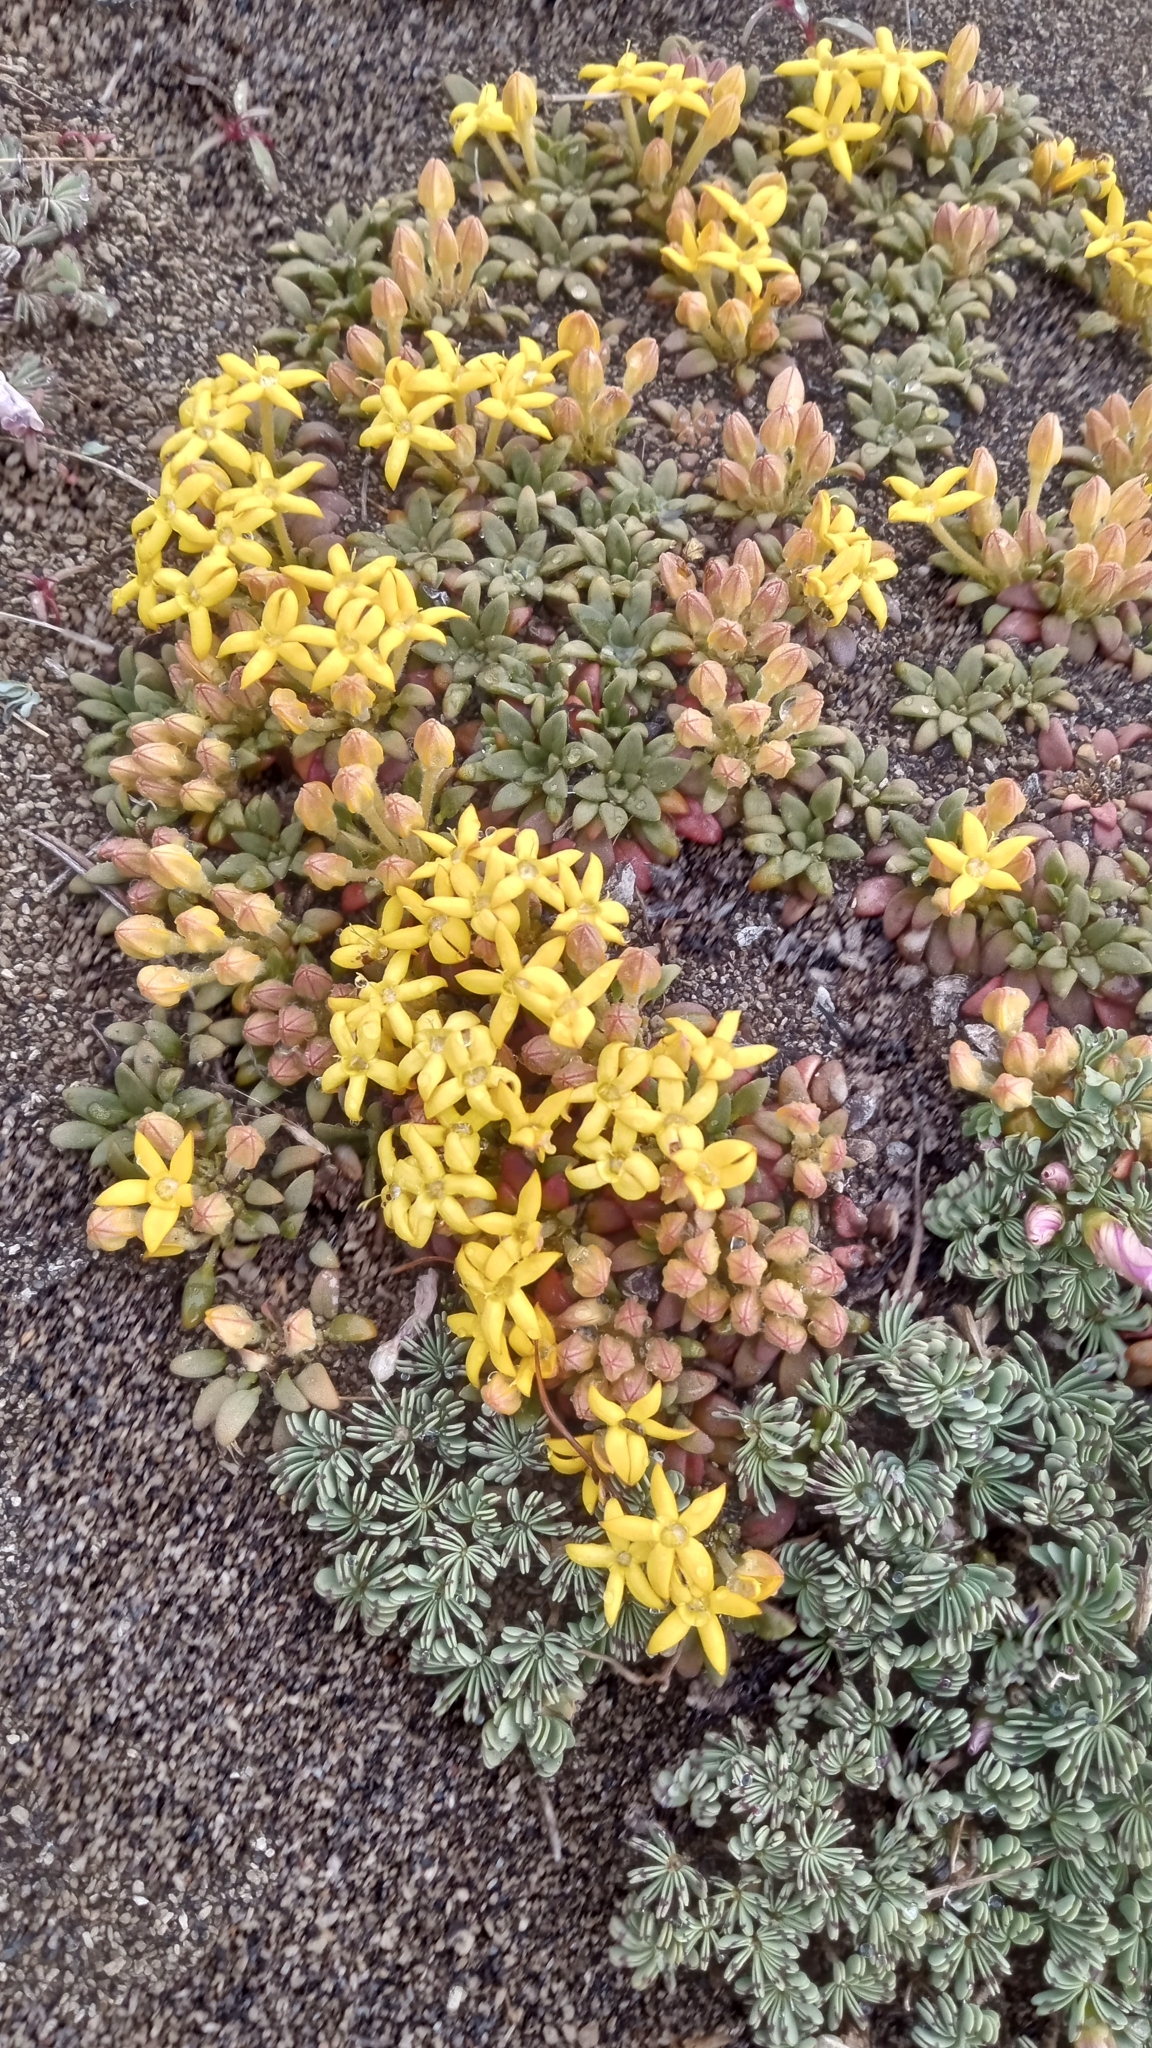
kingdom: Plantae
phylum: Tracheophyta
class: Magnoliopsida
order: Gentianales
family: Rubiaceae
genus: Oreopolus
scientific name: Oreopolus glacialis
